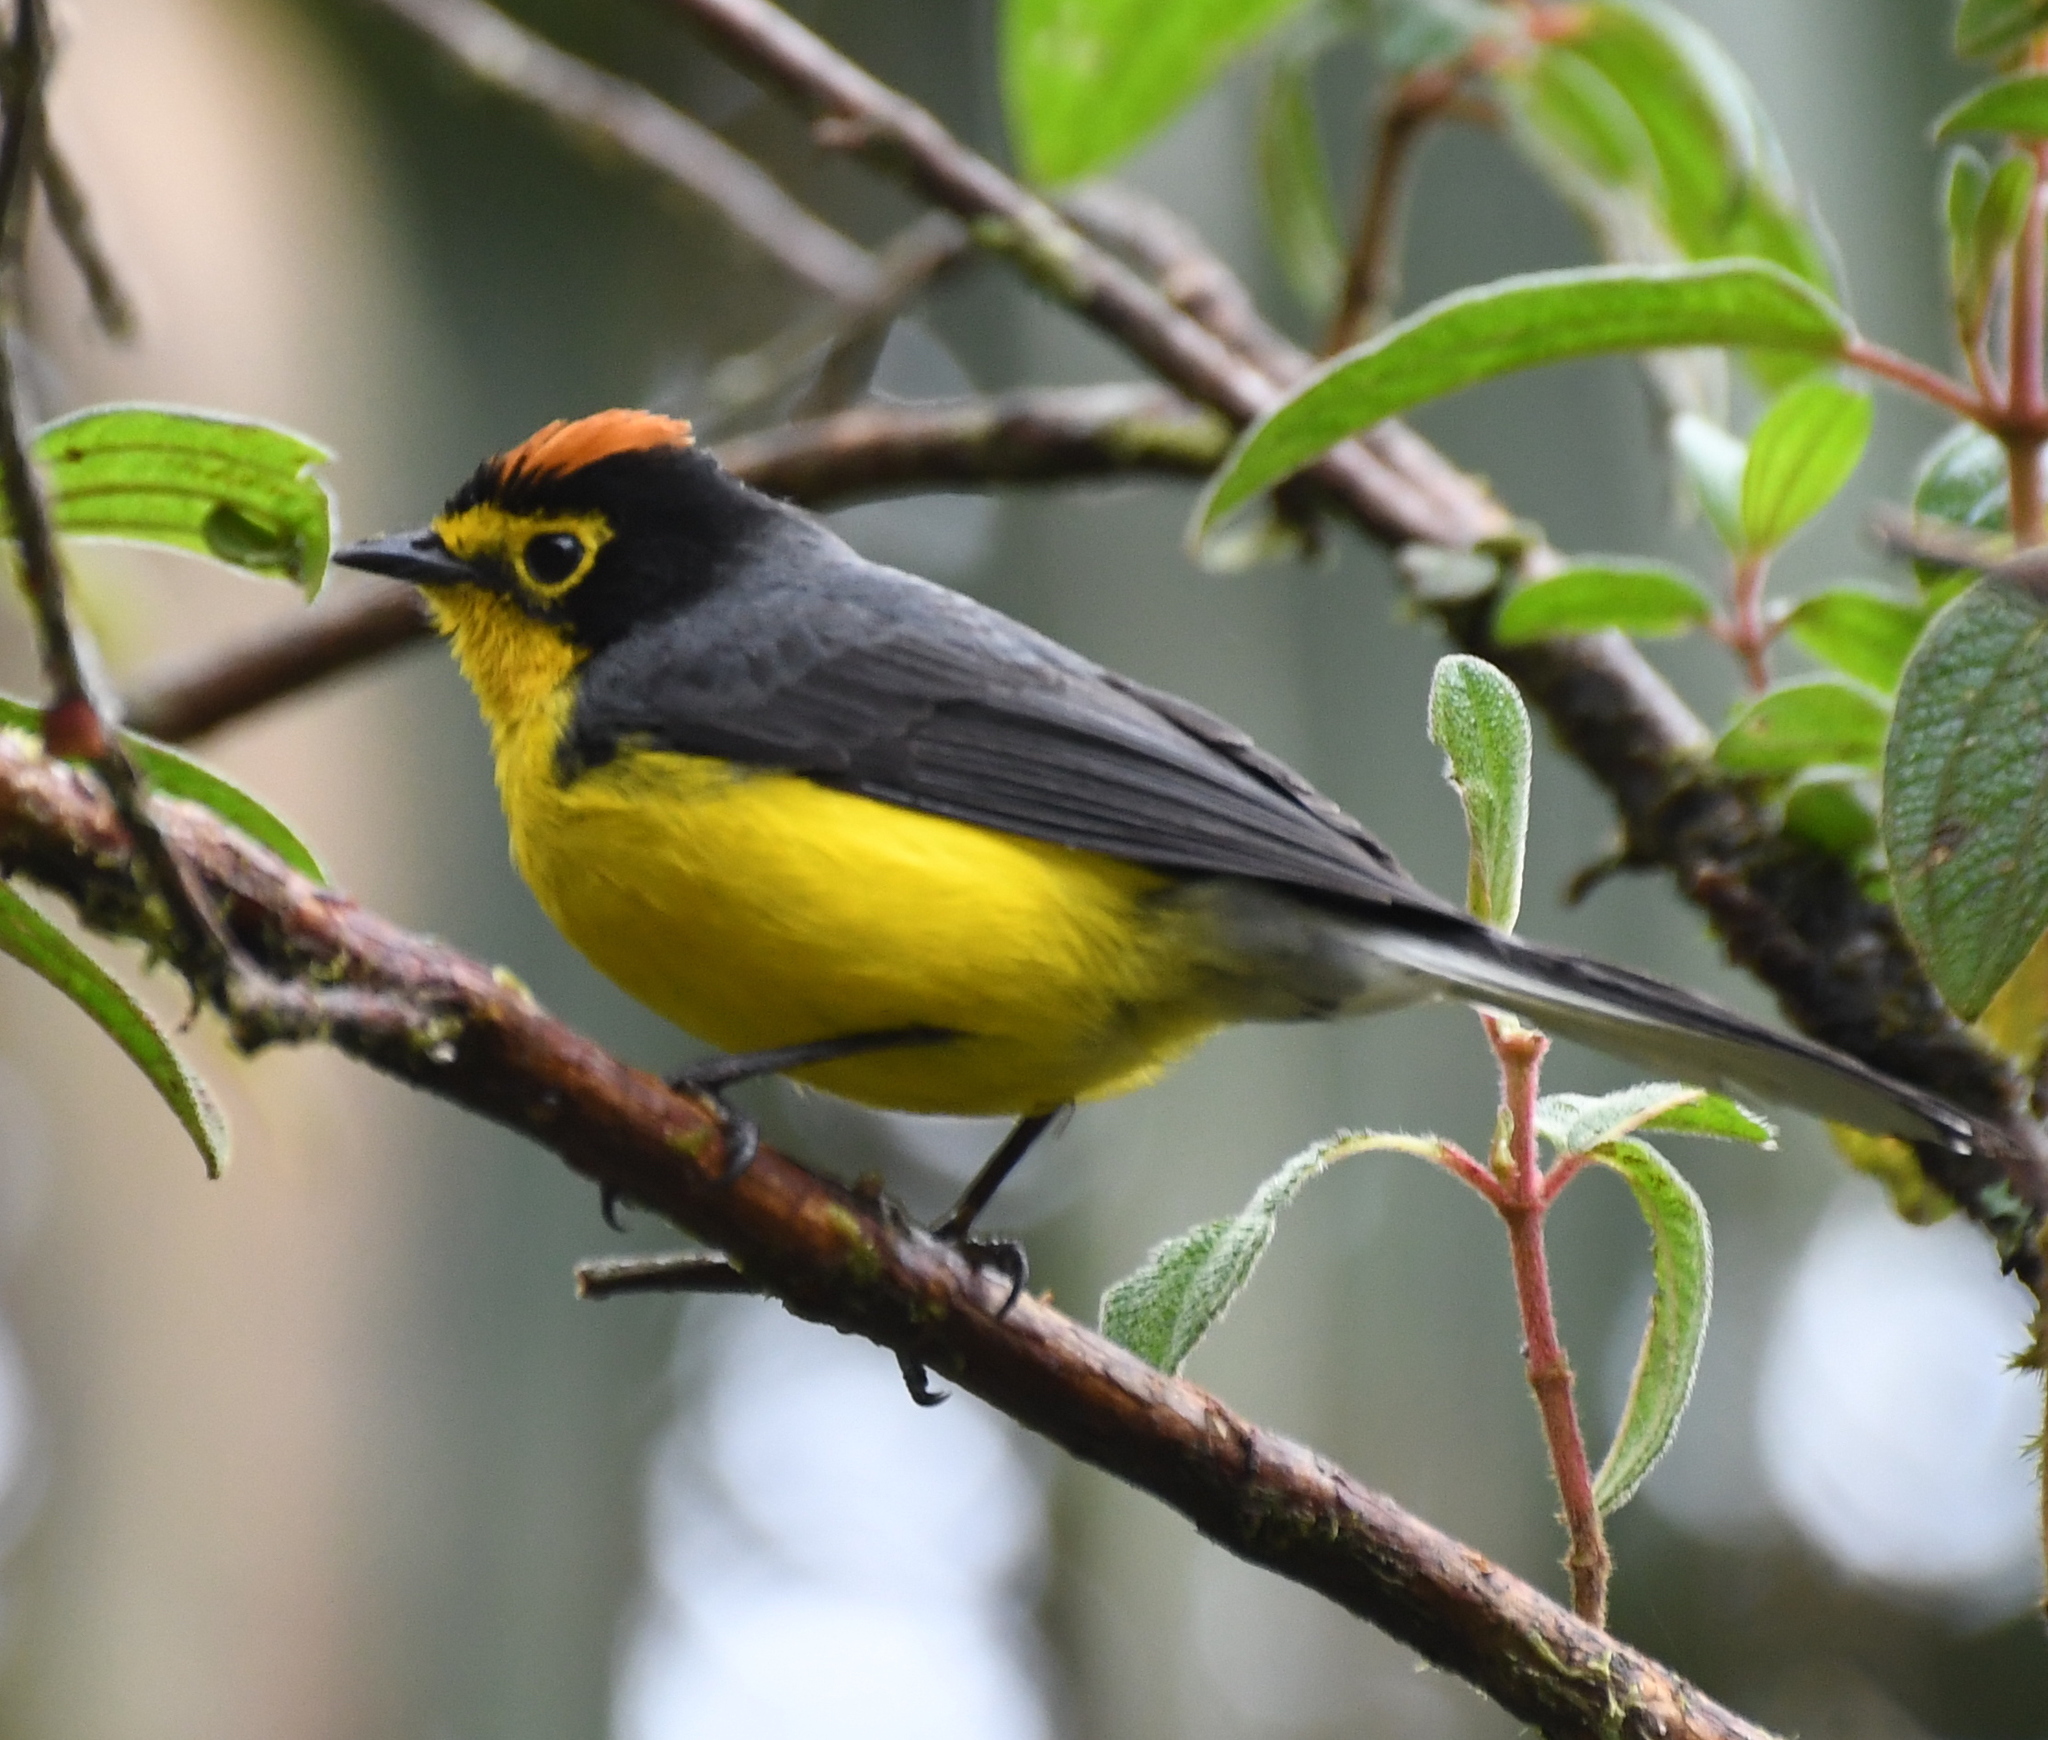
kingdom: Animalia
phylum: Chordata
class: Aves
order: Passeriformes
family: Parulidae
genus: Myioborus
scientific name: Myioborus melanocephalus
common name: Spectacled whitestart
